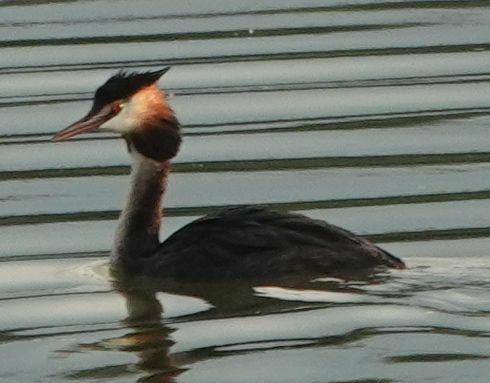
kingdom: Animalia
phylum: Chordata
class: Aves
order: Podicipediformes
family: Podicipedidae
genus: Podiceps
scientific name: Podiceps cristatus
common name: Great crested grebe
